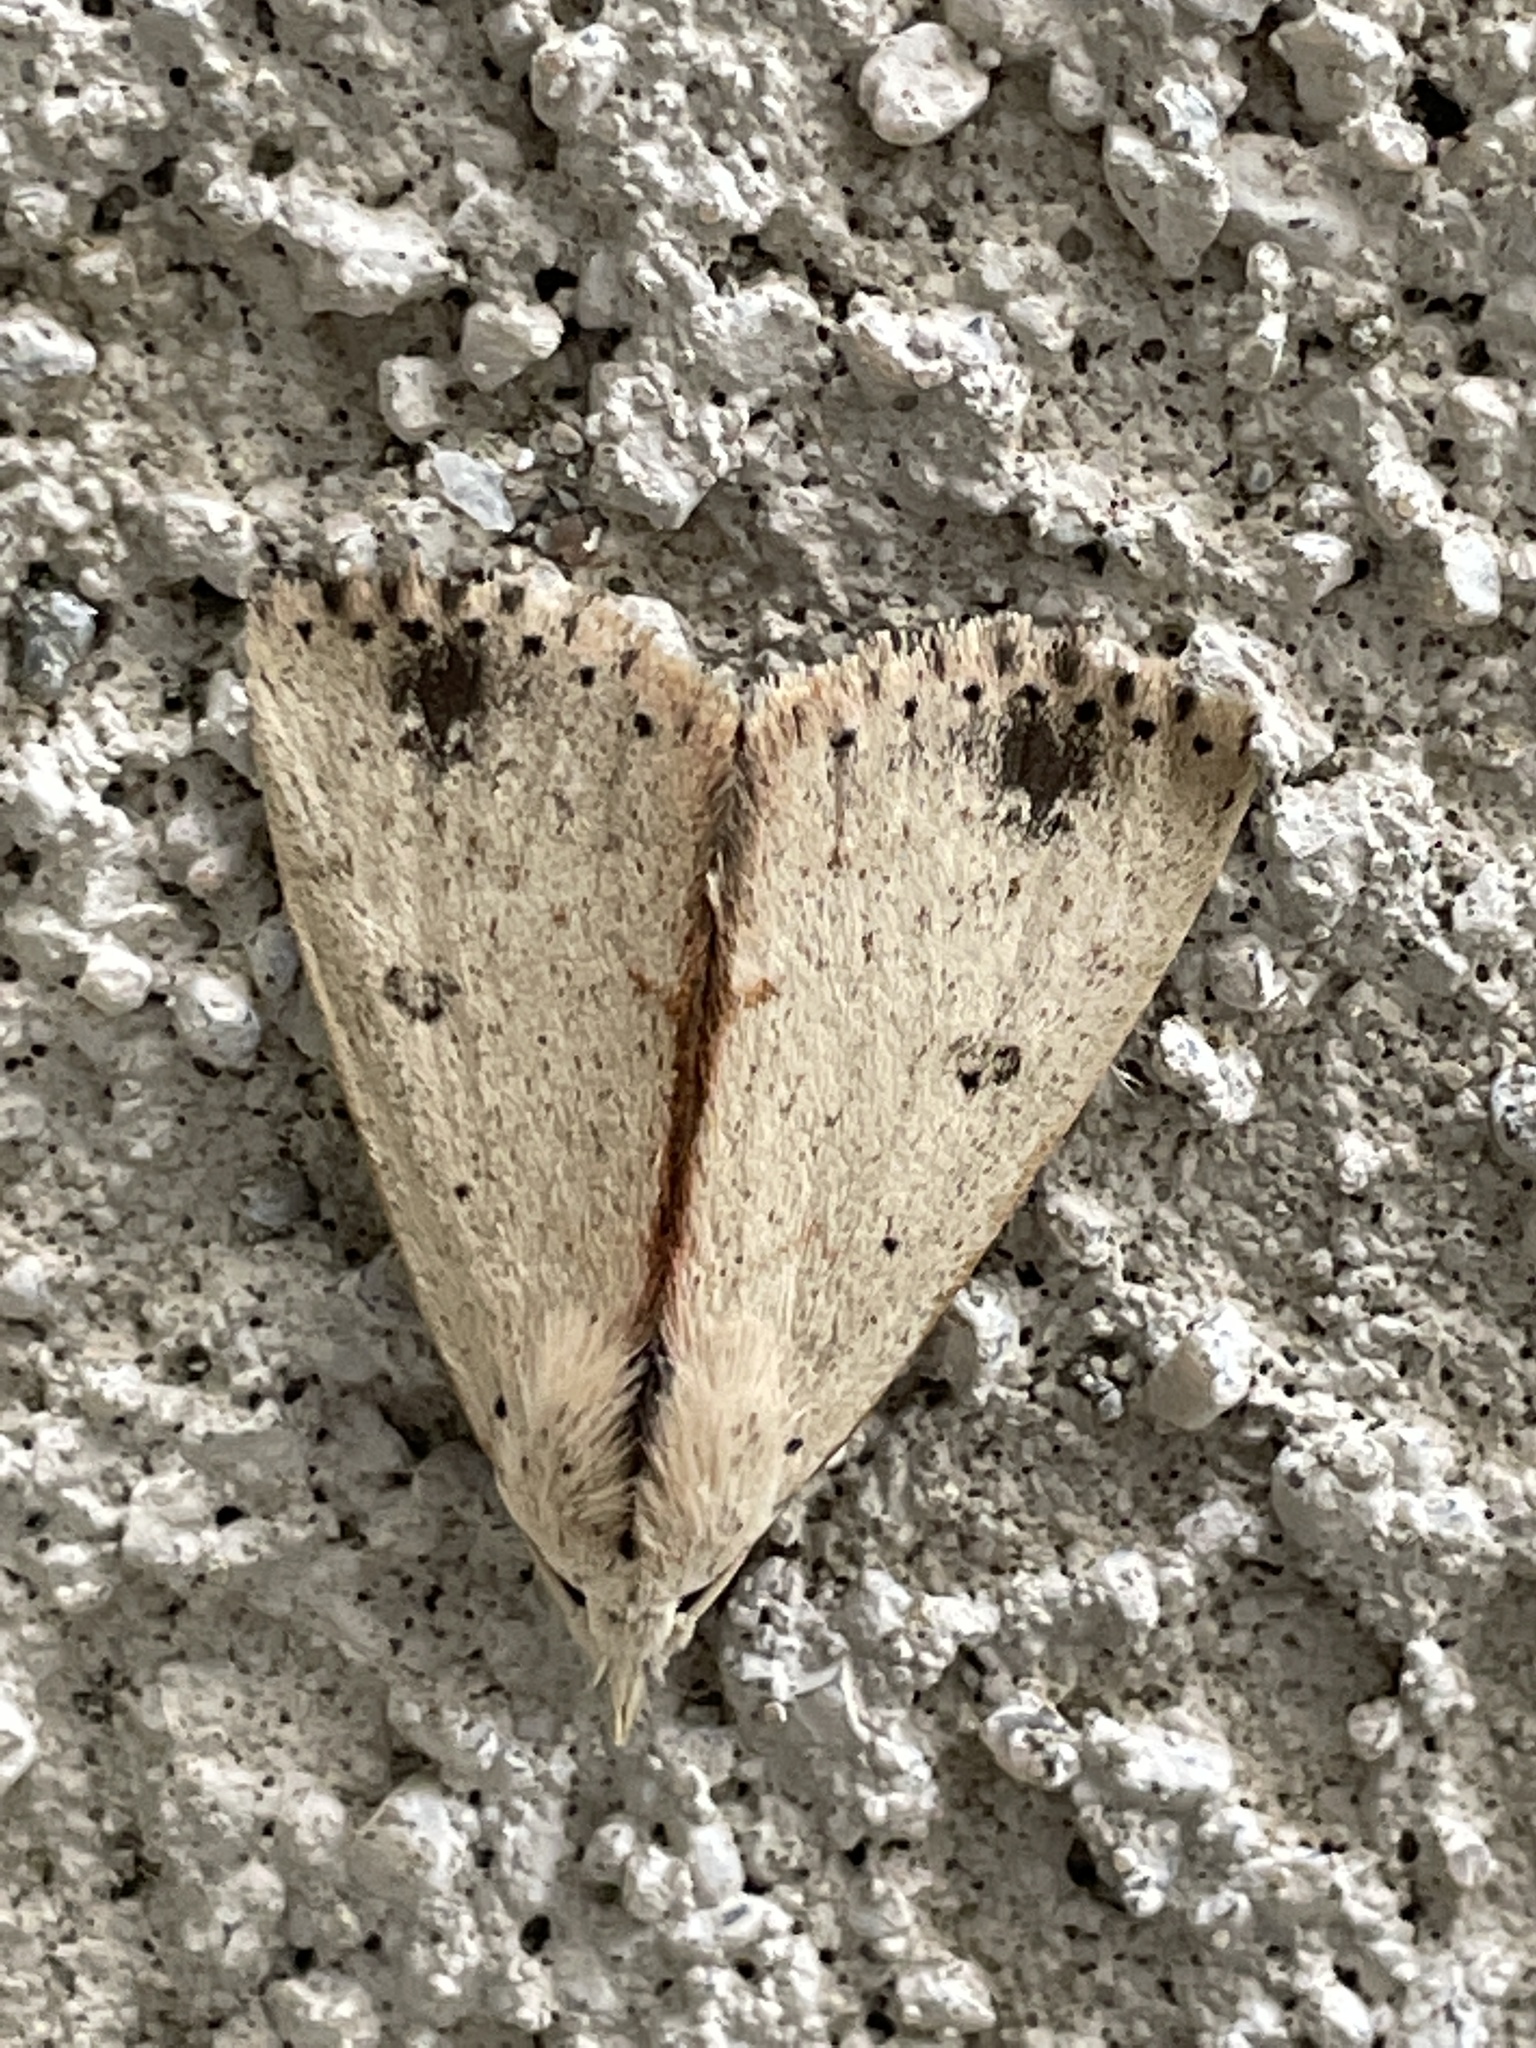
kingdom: Animalia
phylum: Arthropoda
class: Insecta
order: Lepidoptera
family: Erebidae
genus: Scolecocampa
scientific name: Scolecocampa liburna
